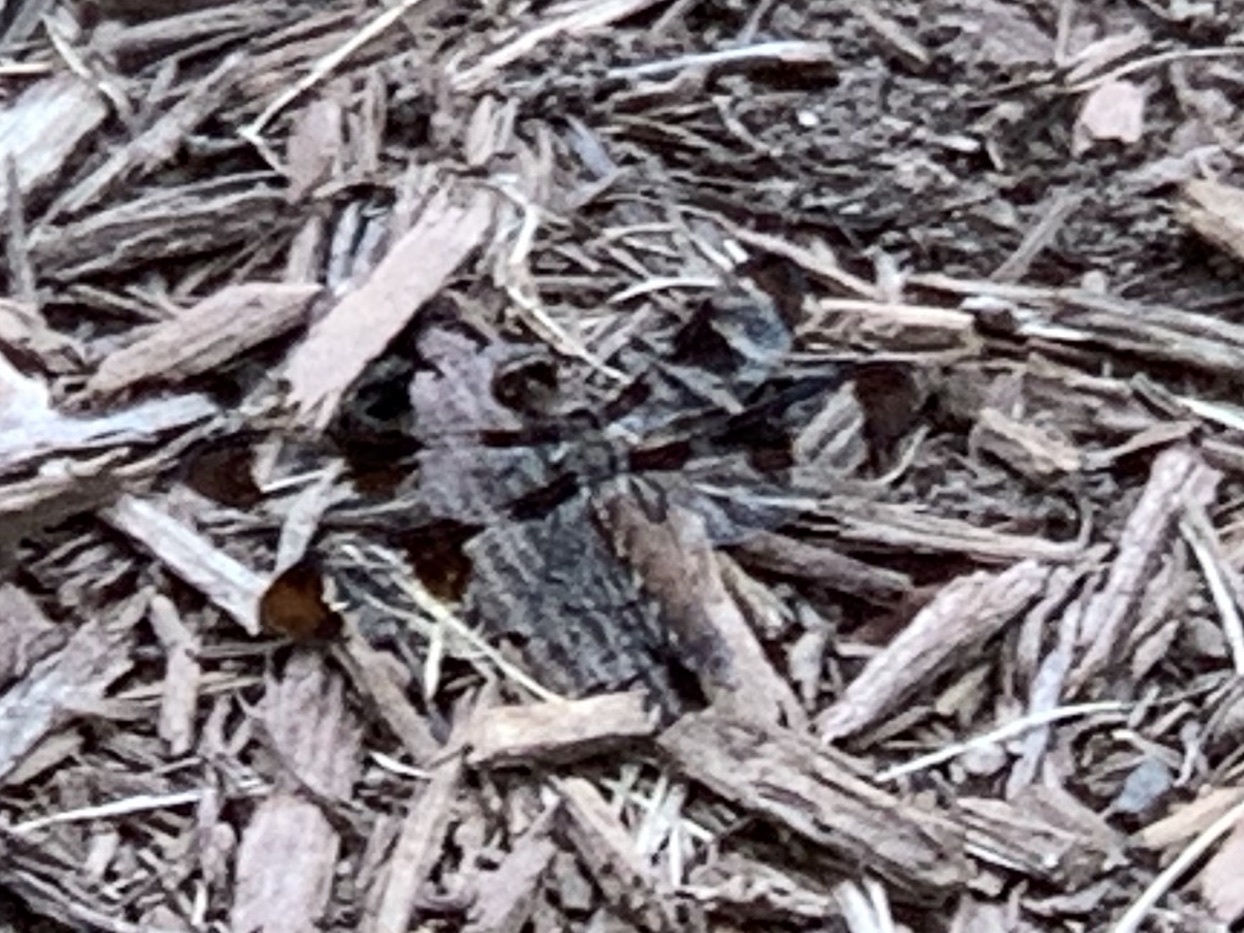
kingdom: Animalia
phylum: Arthropoda
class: Insecta
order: Odonata
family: Libellulidae
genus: Plathemis
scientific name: Plathemis lydia
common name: Common whitetail
